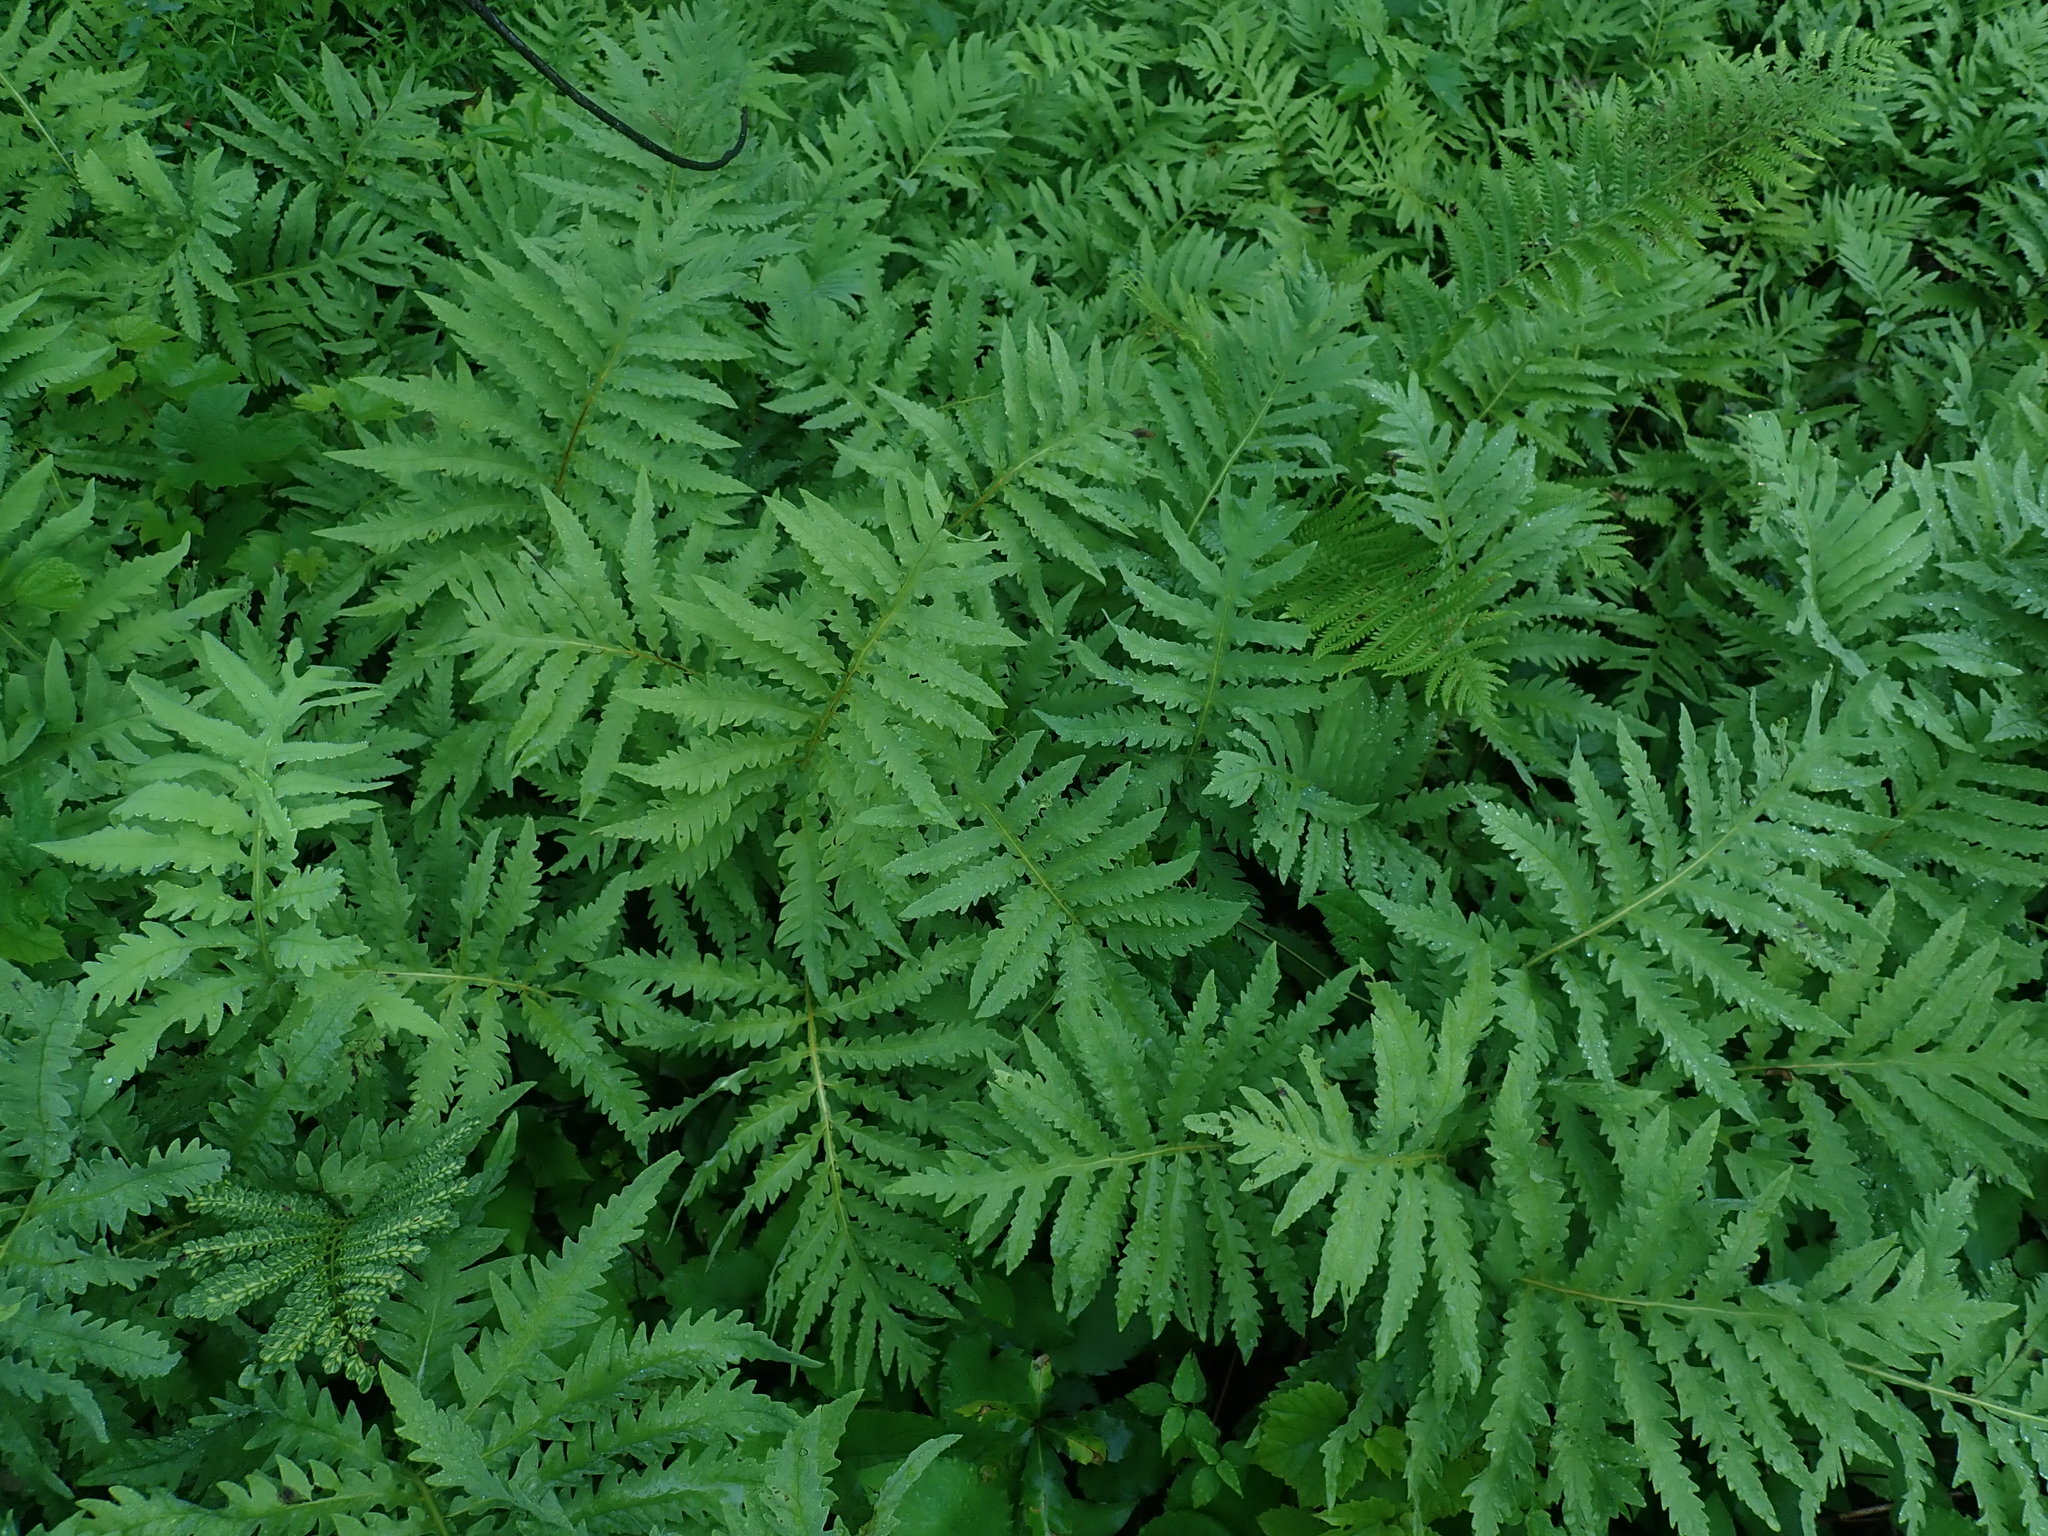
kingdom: Plantae
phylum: Tracheophyta
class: Polypodiopsida
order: Polypodiales
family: Onocleaceae
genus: Onoclea
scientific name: Onoclea sensibilis
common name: Sensitive fern
